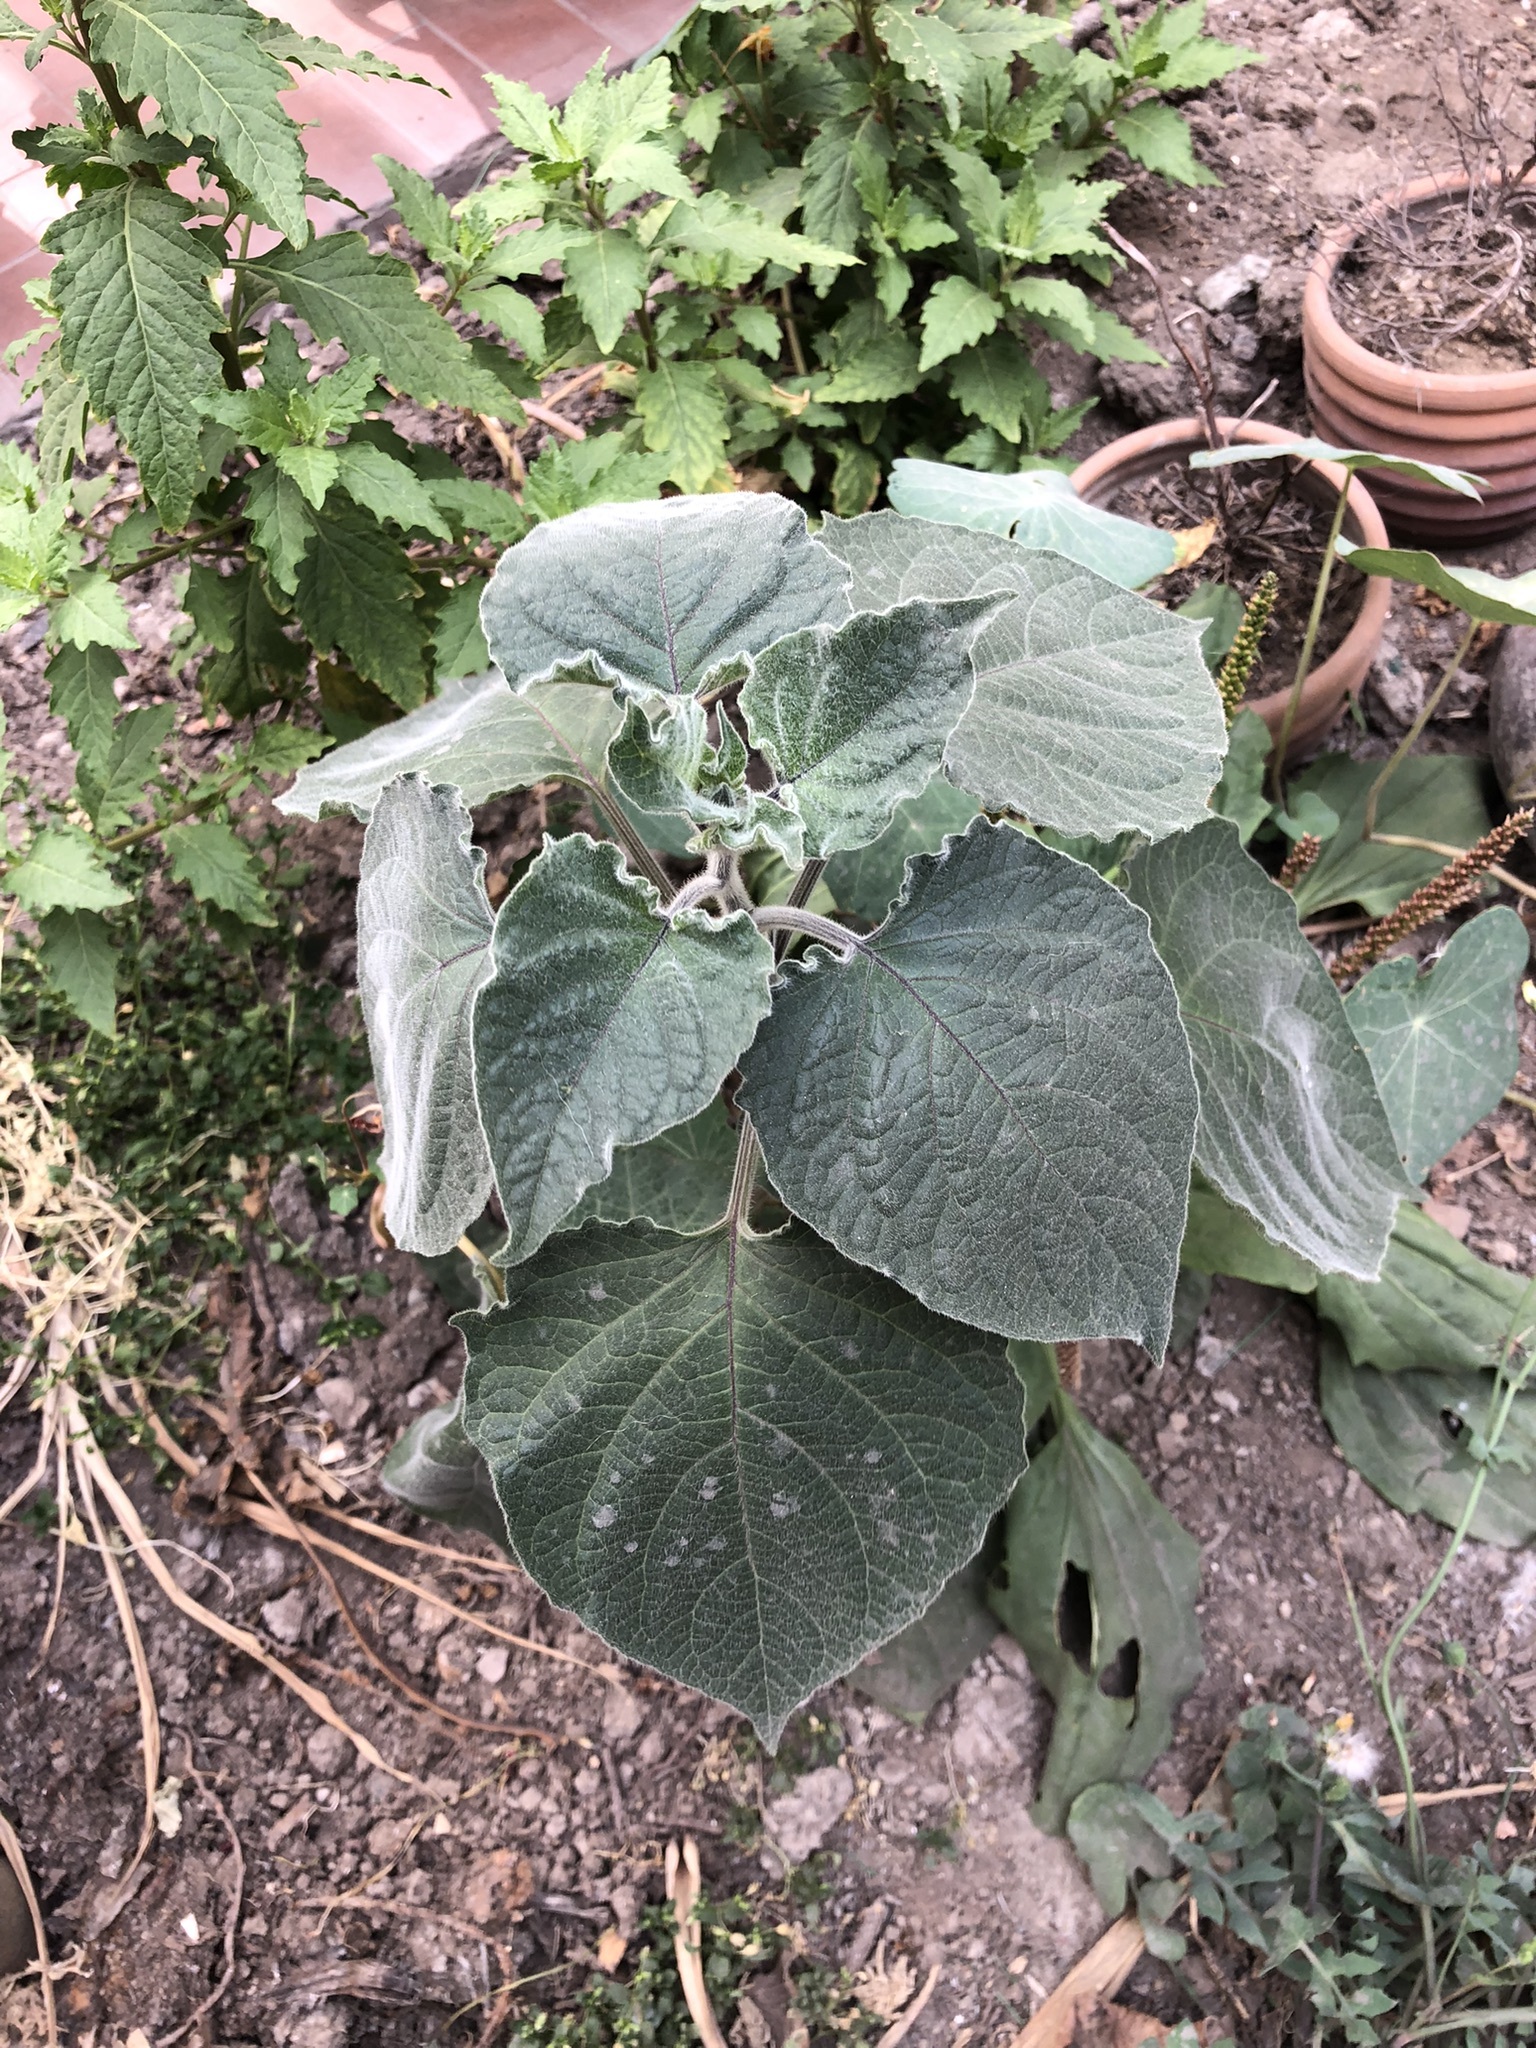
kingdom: Plantae
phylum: Tracheophyta
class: Magnoliopsida
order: Solanales
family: Solanaceae
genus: Physalis
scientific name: Physalis peruviana
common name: Cape-gooseberry
